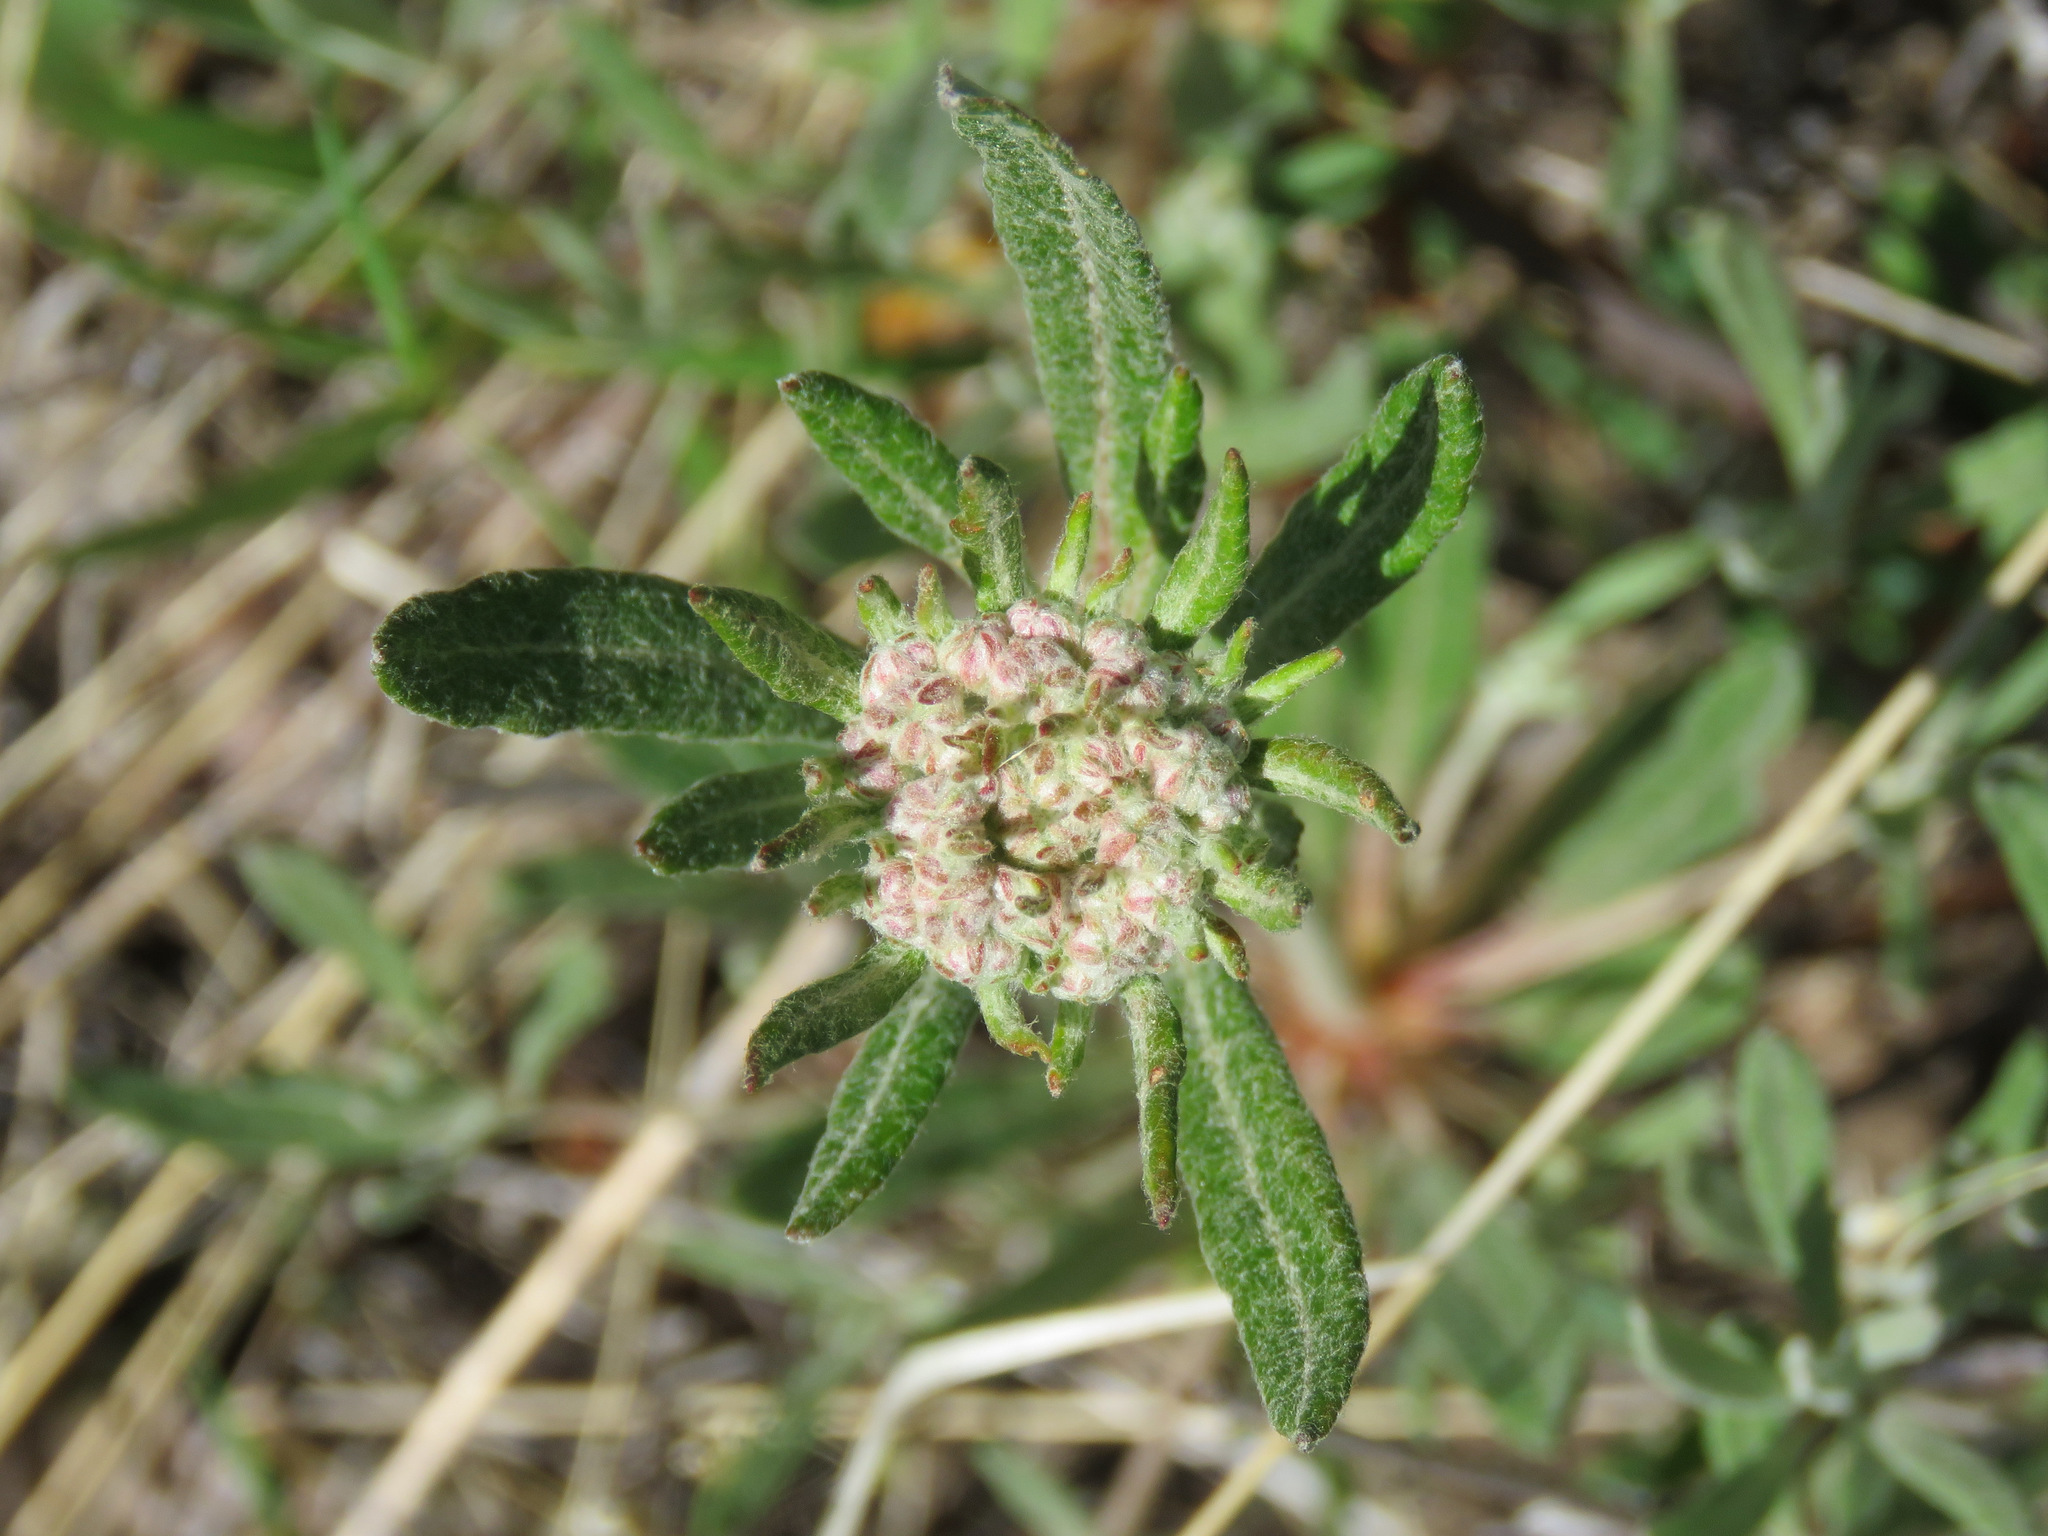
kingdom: Plantae
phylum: Tracheophyta
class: Magnoliopsida
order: Caryophyllales
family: Polygonaceae
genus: Eriogonum
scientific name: Eriogonum heracleoides
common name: Wyeth's buckwheat
